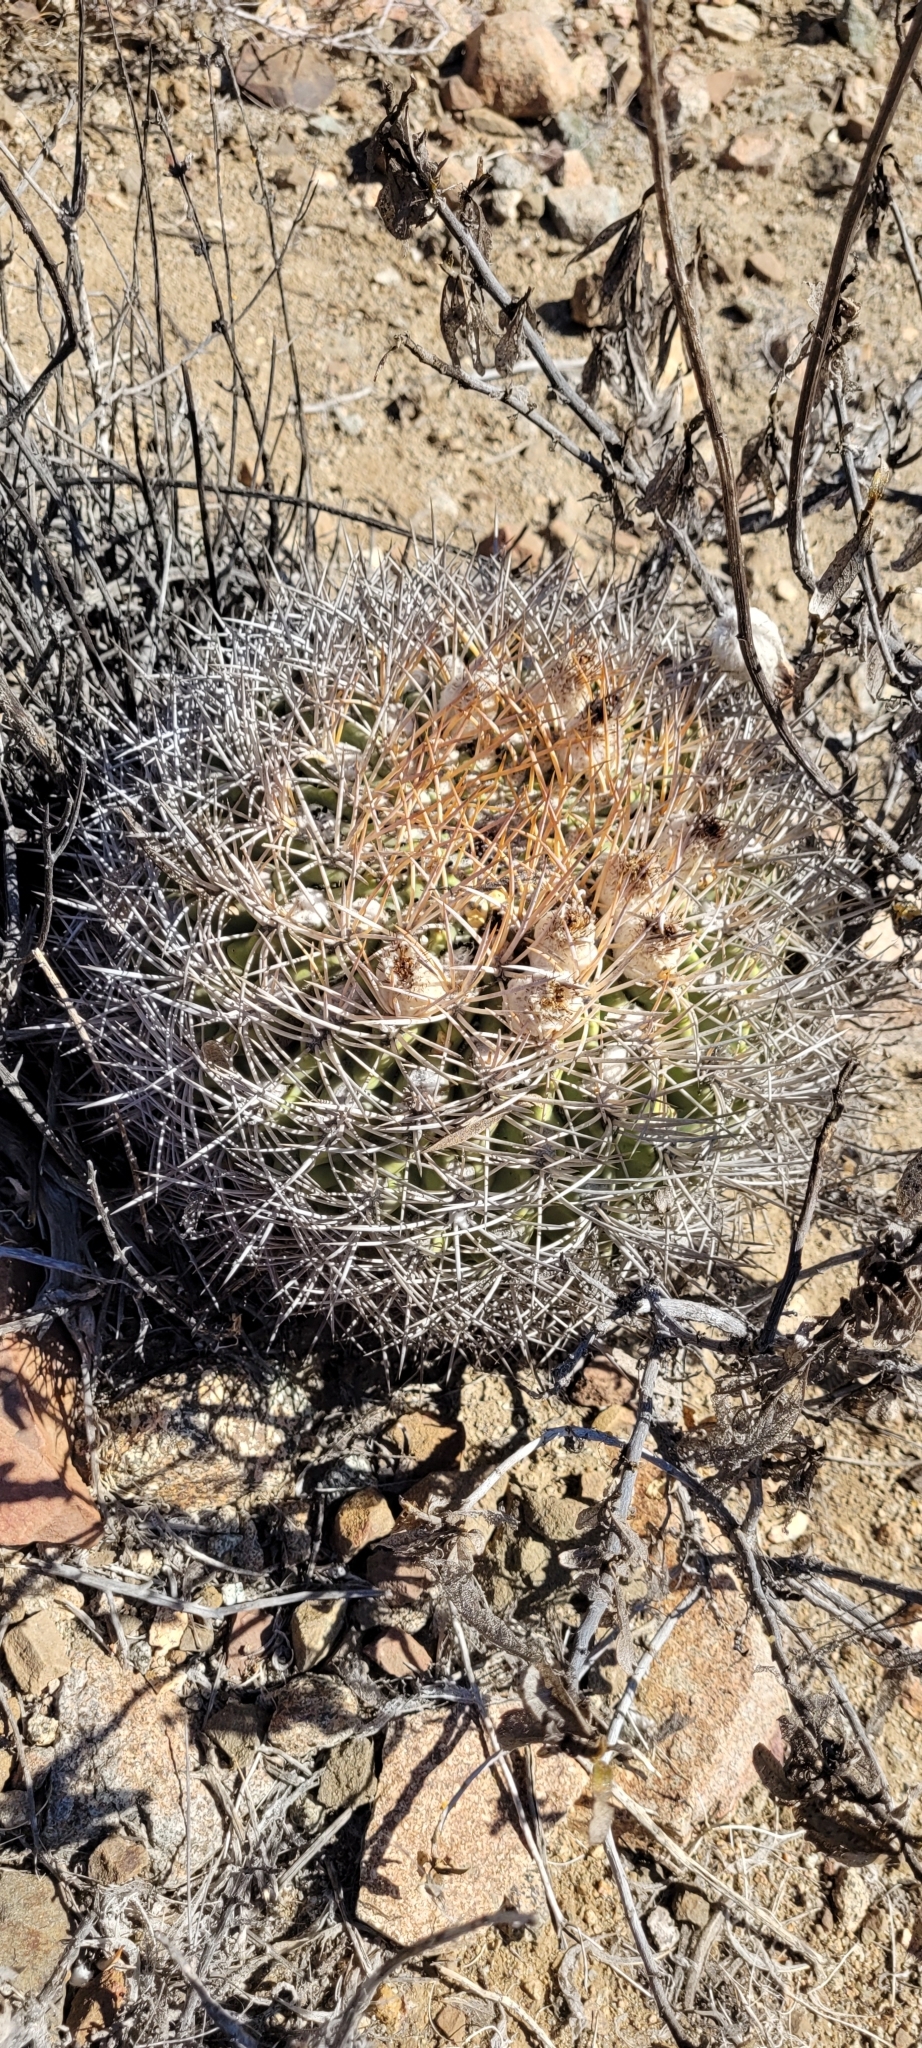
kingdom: Plantae
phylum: Tracheophyta
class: Magnoliopsida
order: Caryophyllales
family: Cactaceae
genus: Eriosyce
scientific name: Eriosyce aurata
